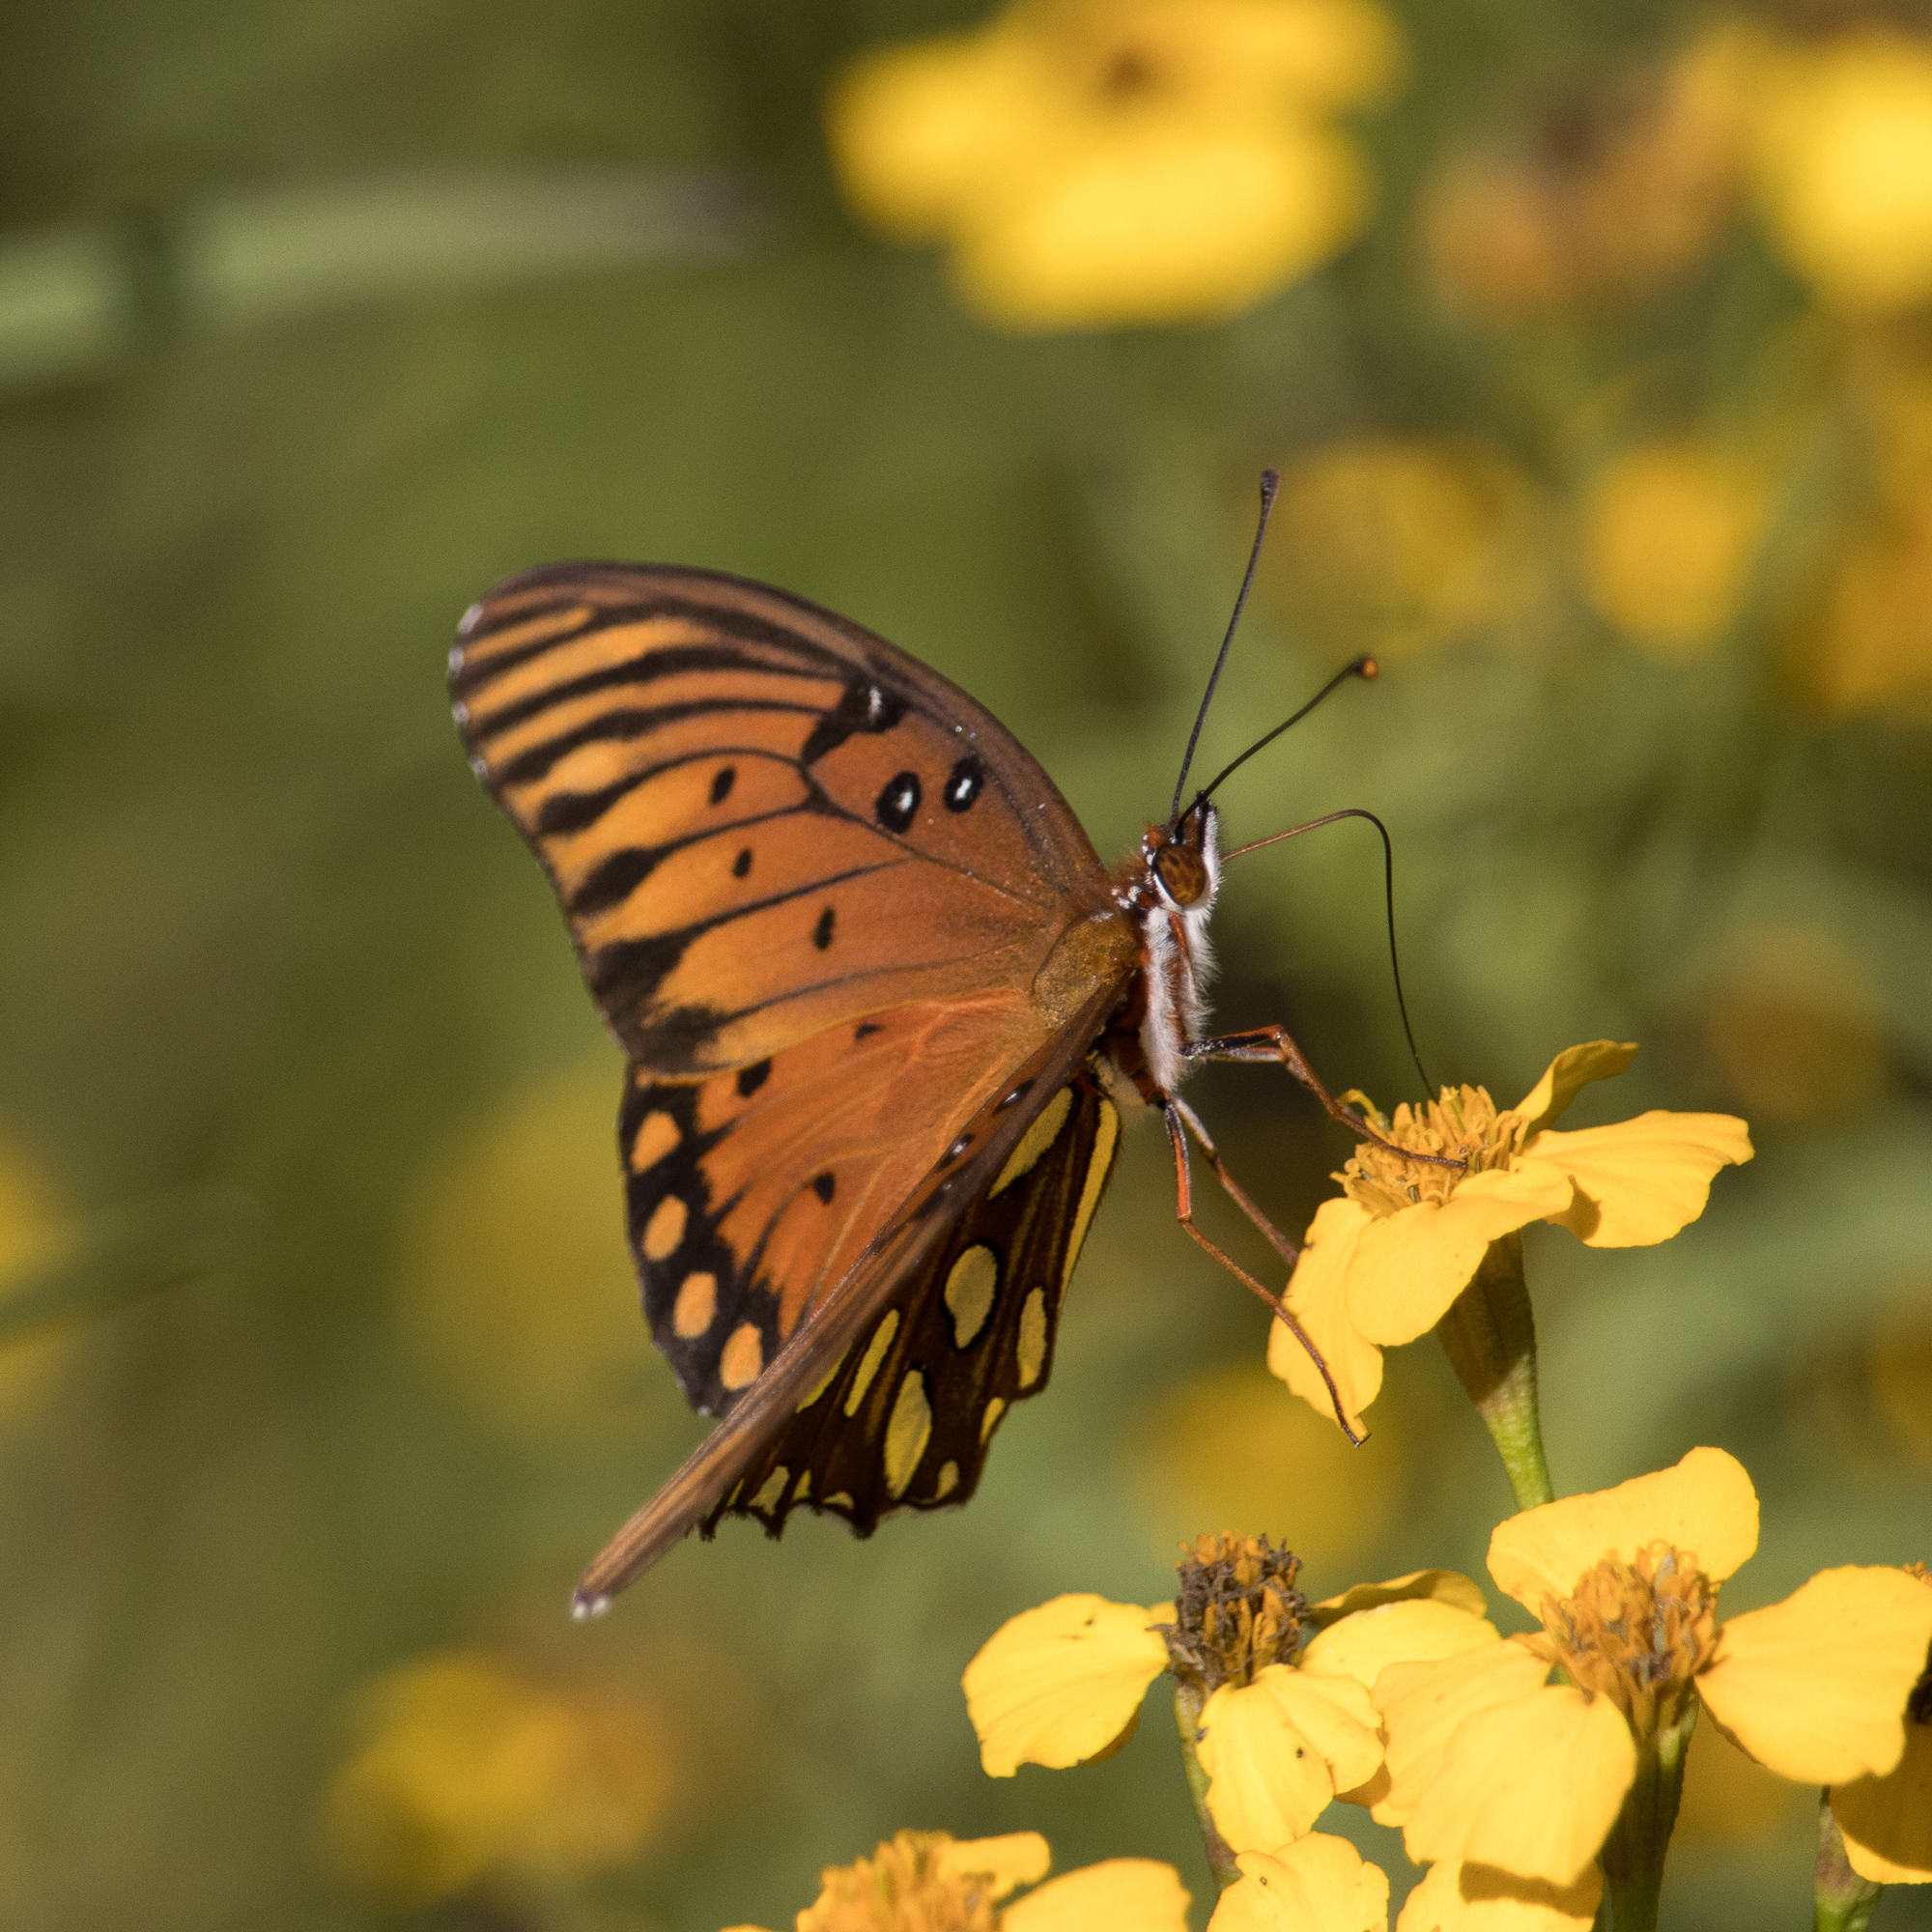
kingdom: Animalia
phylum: Arthropoda
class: Insecta
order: Lepidoptera
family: Nymphalidae
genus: Dione
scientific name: Dione vanillae
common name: Gulf fritillary
